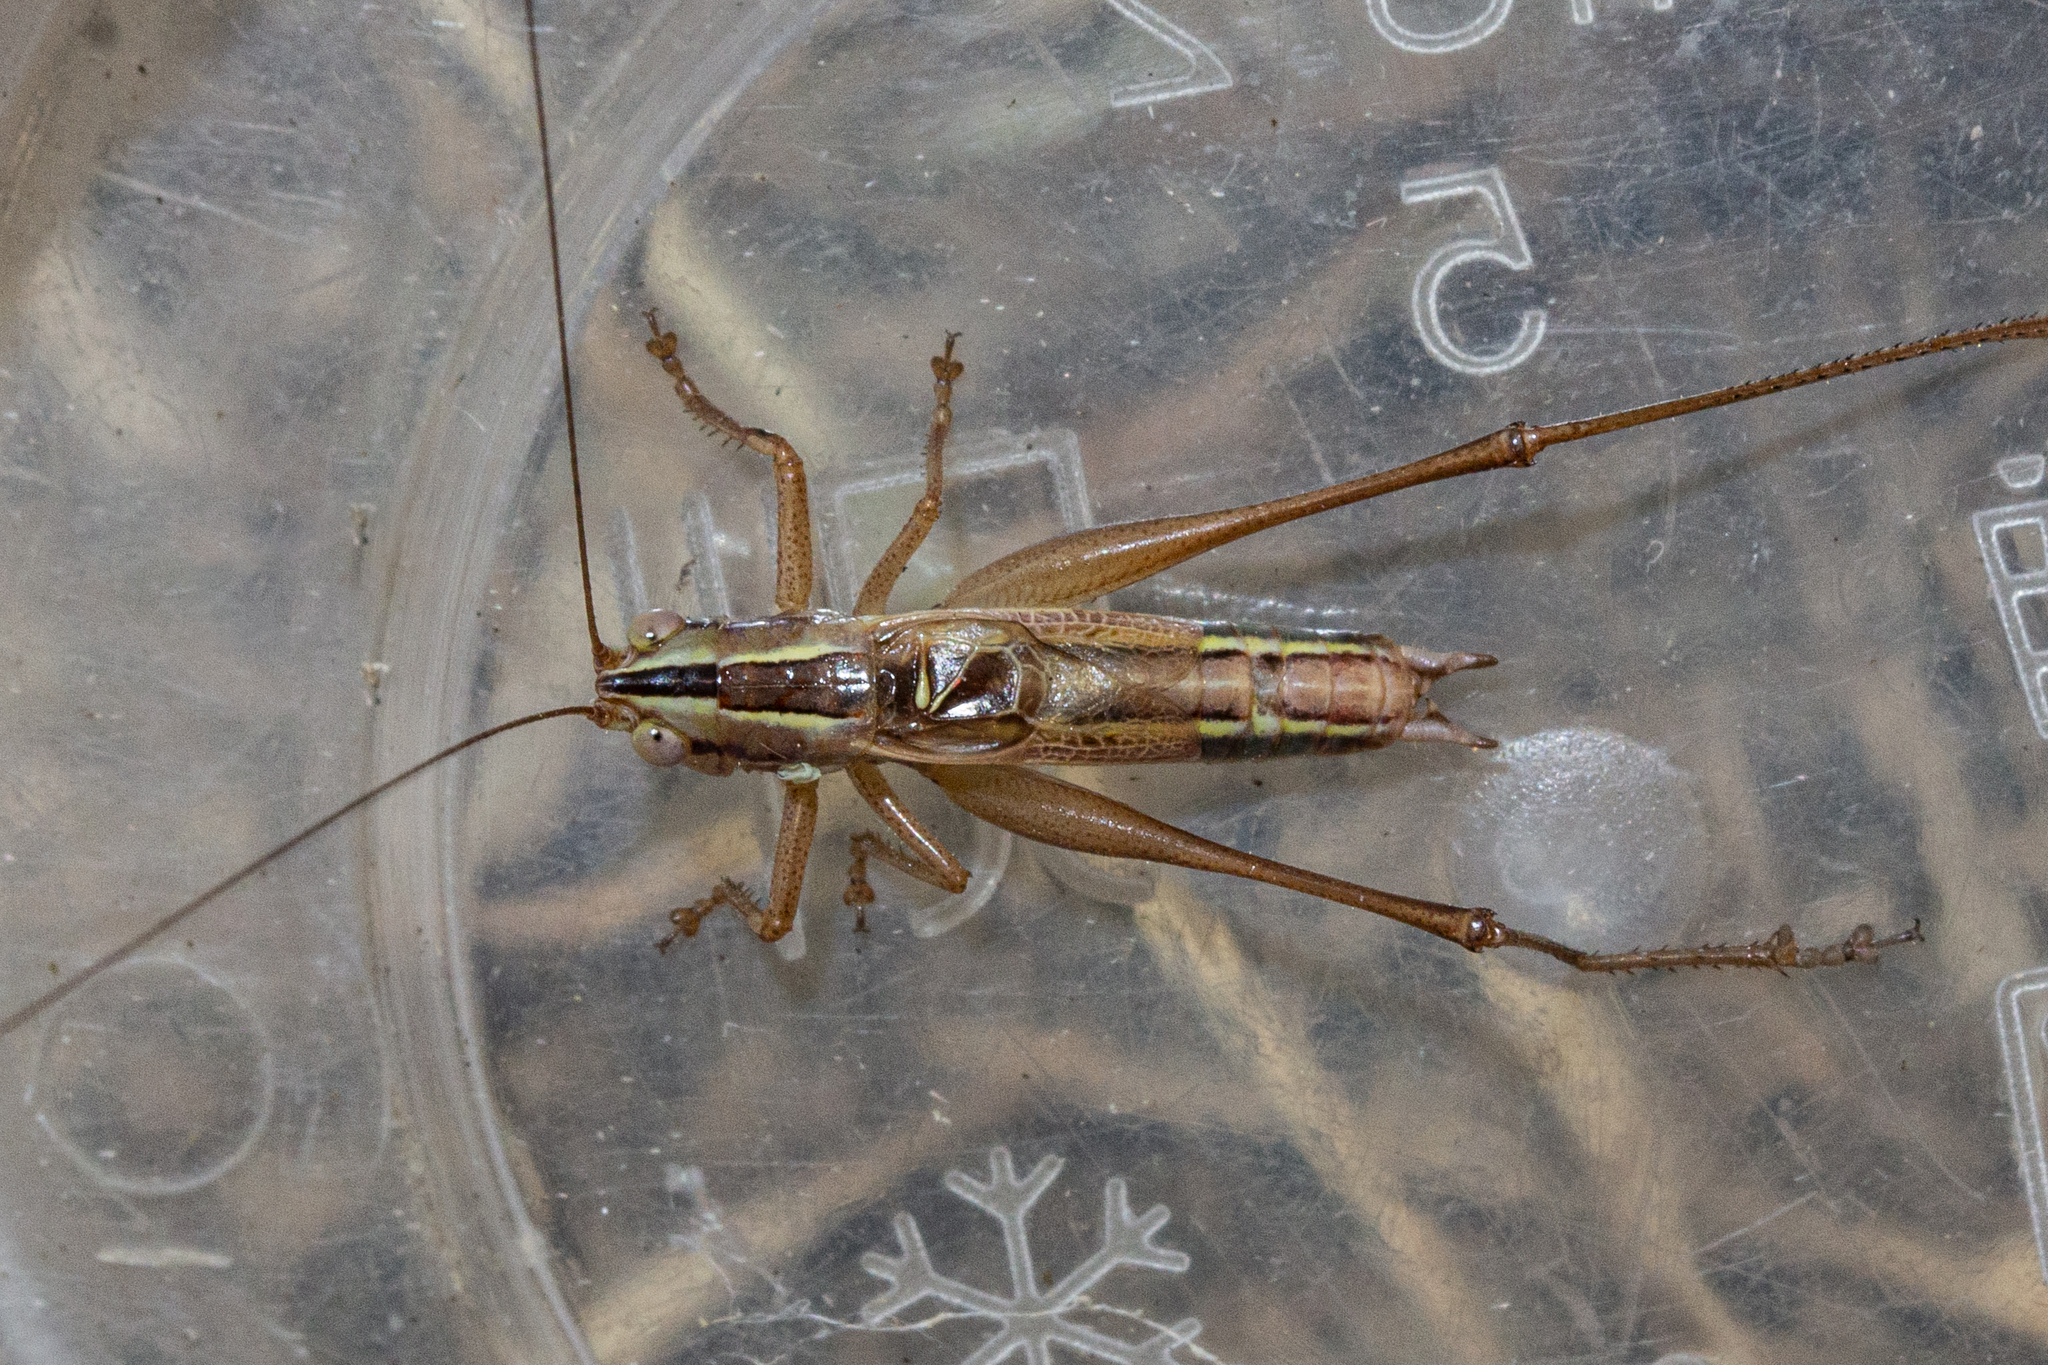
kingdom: Animalia
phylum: Arthropoda
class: Insecta
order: Orthoptera
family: Tettigoniidae
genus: Conocephalus
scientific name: Conocephalus bilineatus
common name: Small meadow katydid
